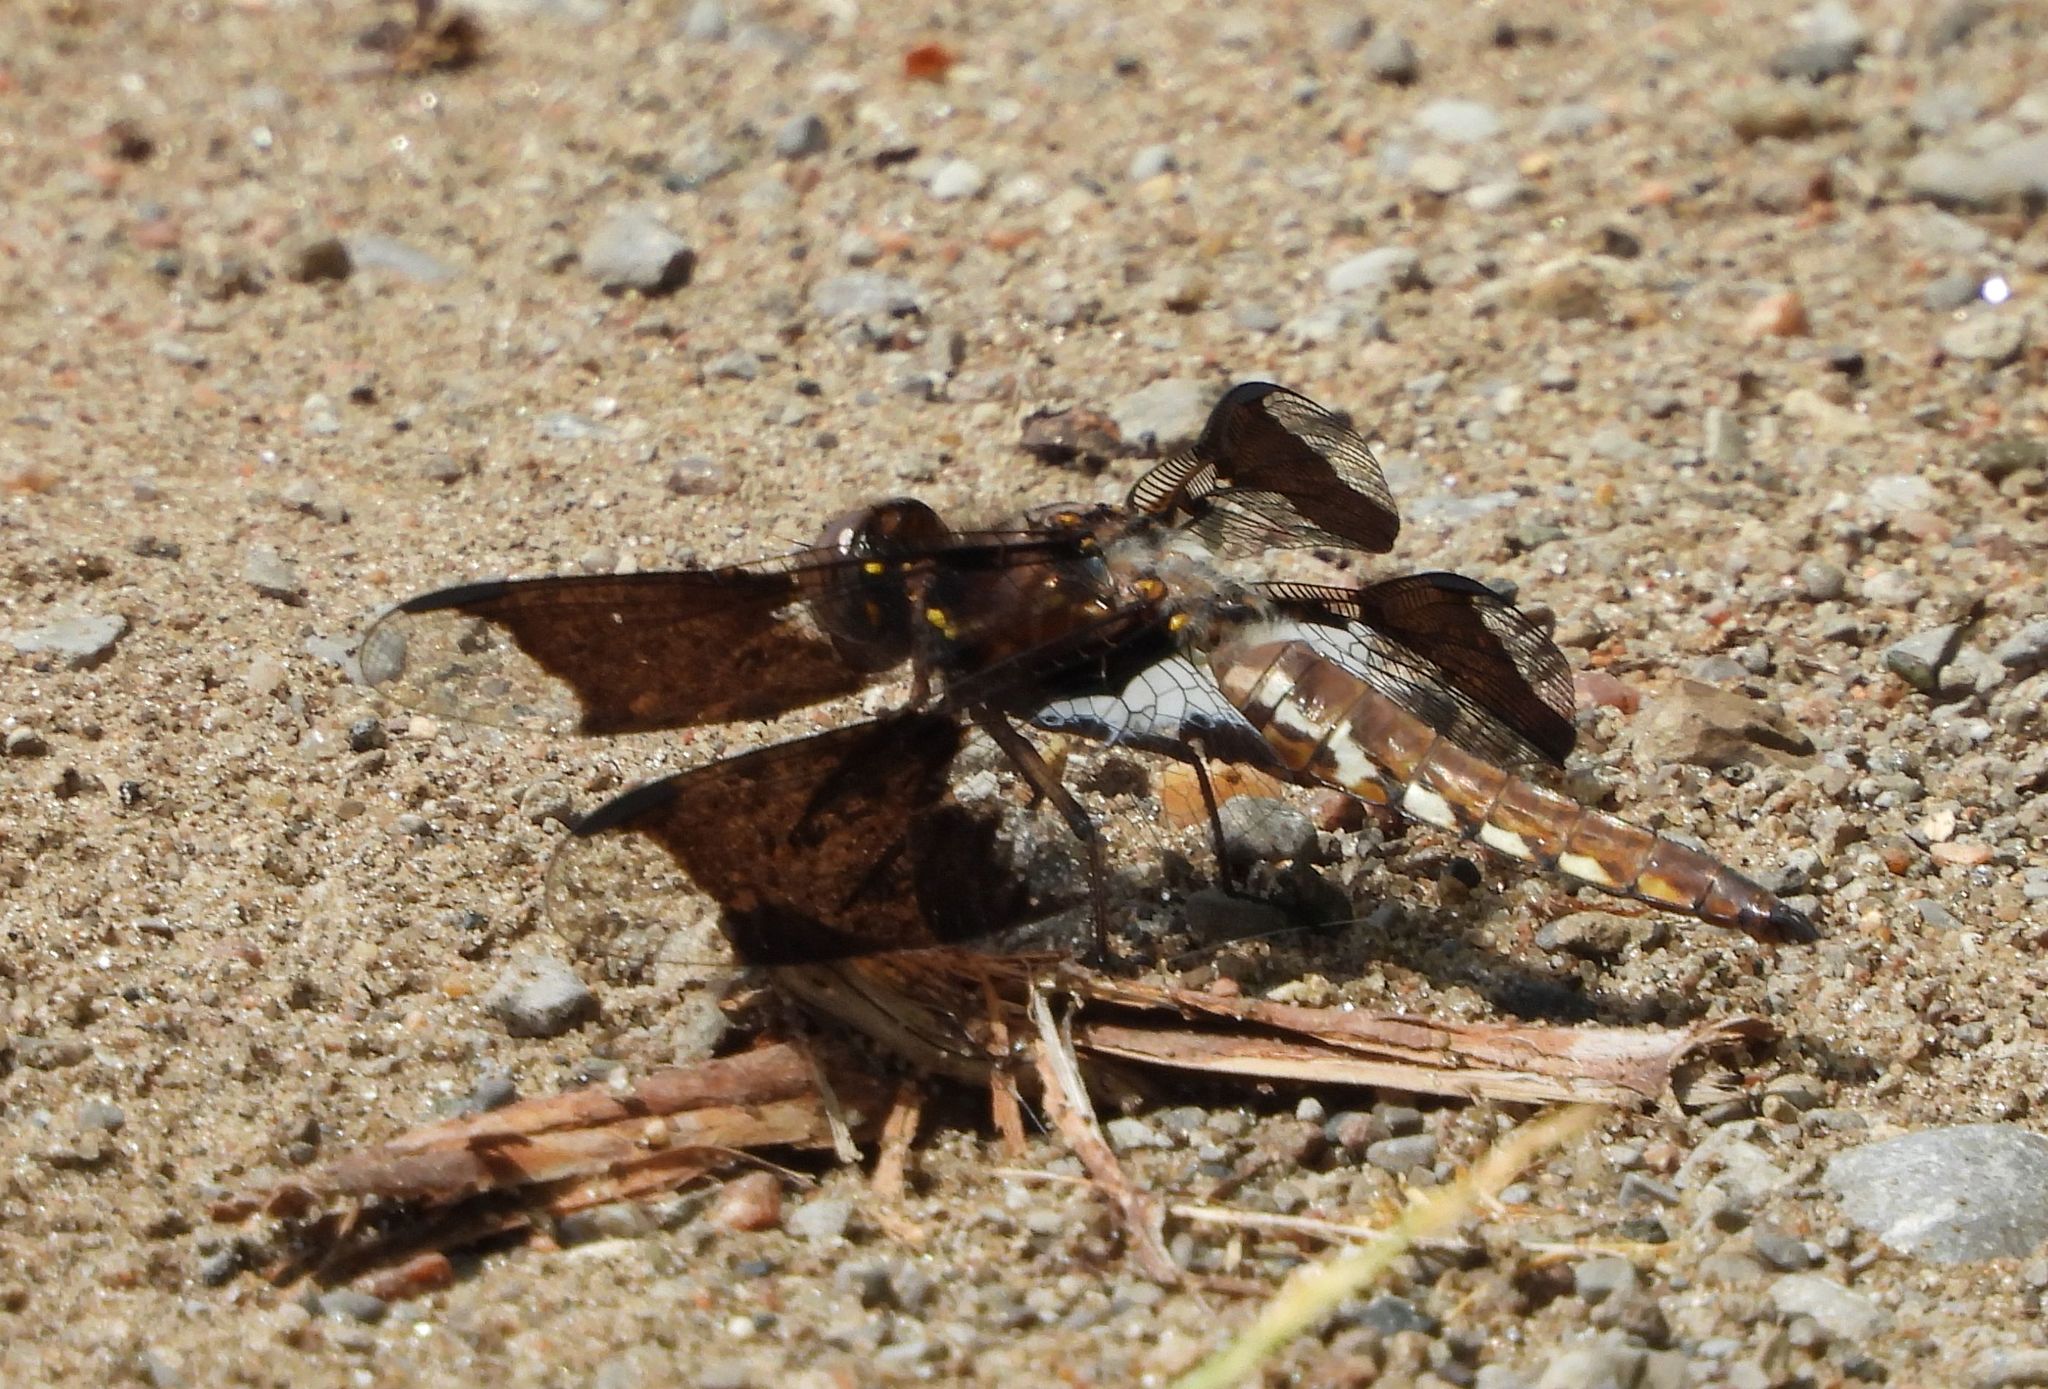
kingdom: Animalia
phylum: Arthropoda
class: Insecta
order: Odonata
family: Libellulidae
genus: Plathemis
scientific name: Plathemis lydia
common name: Common whitetail
